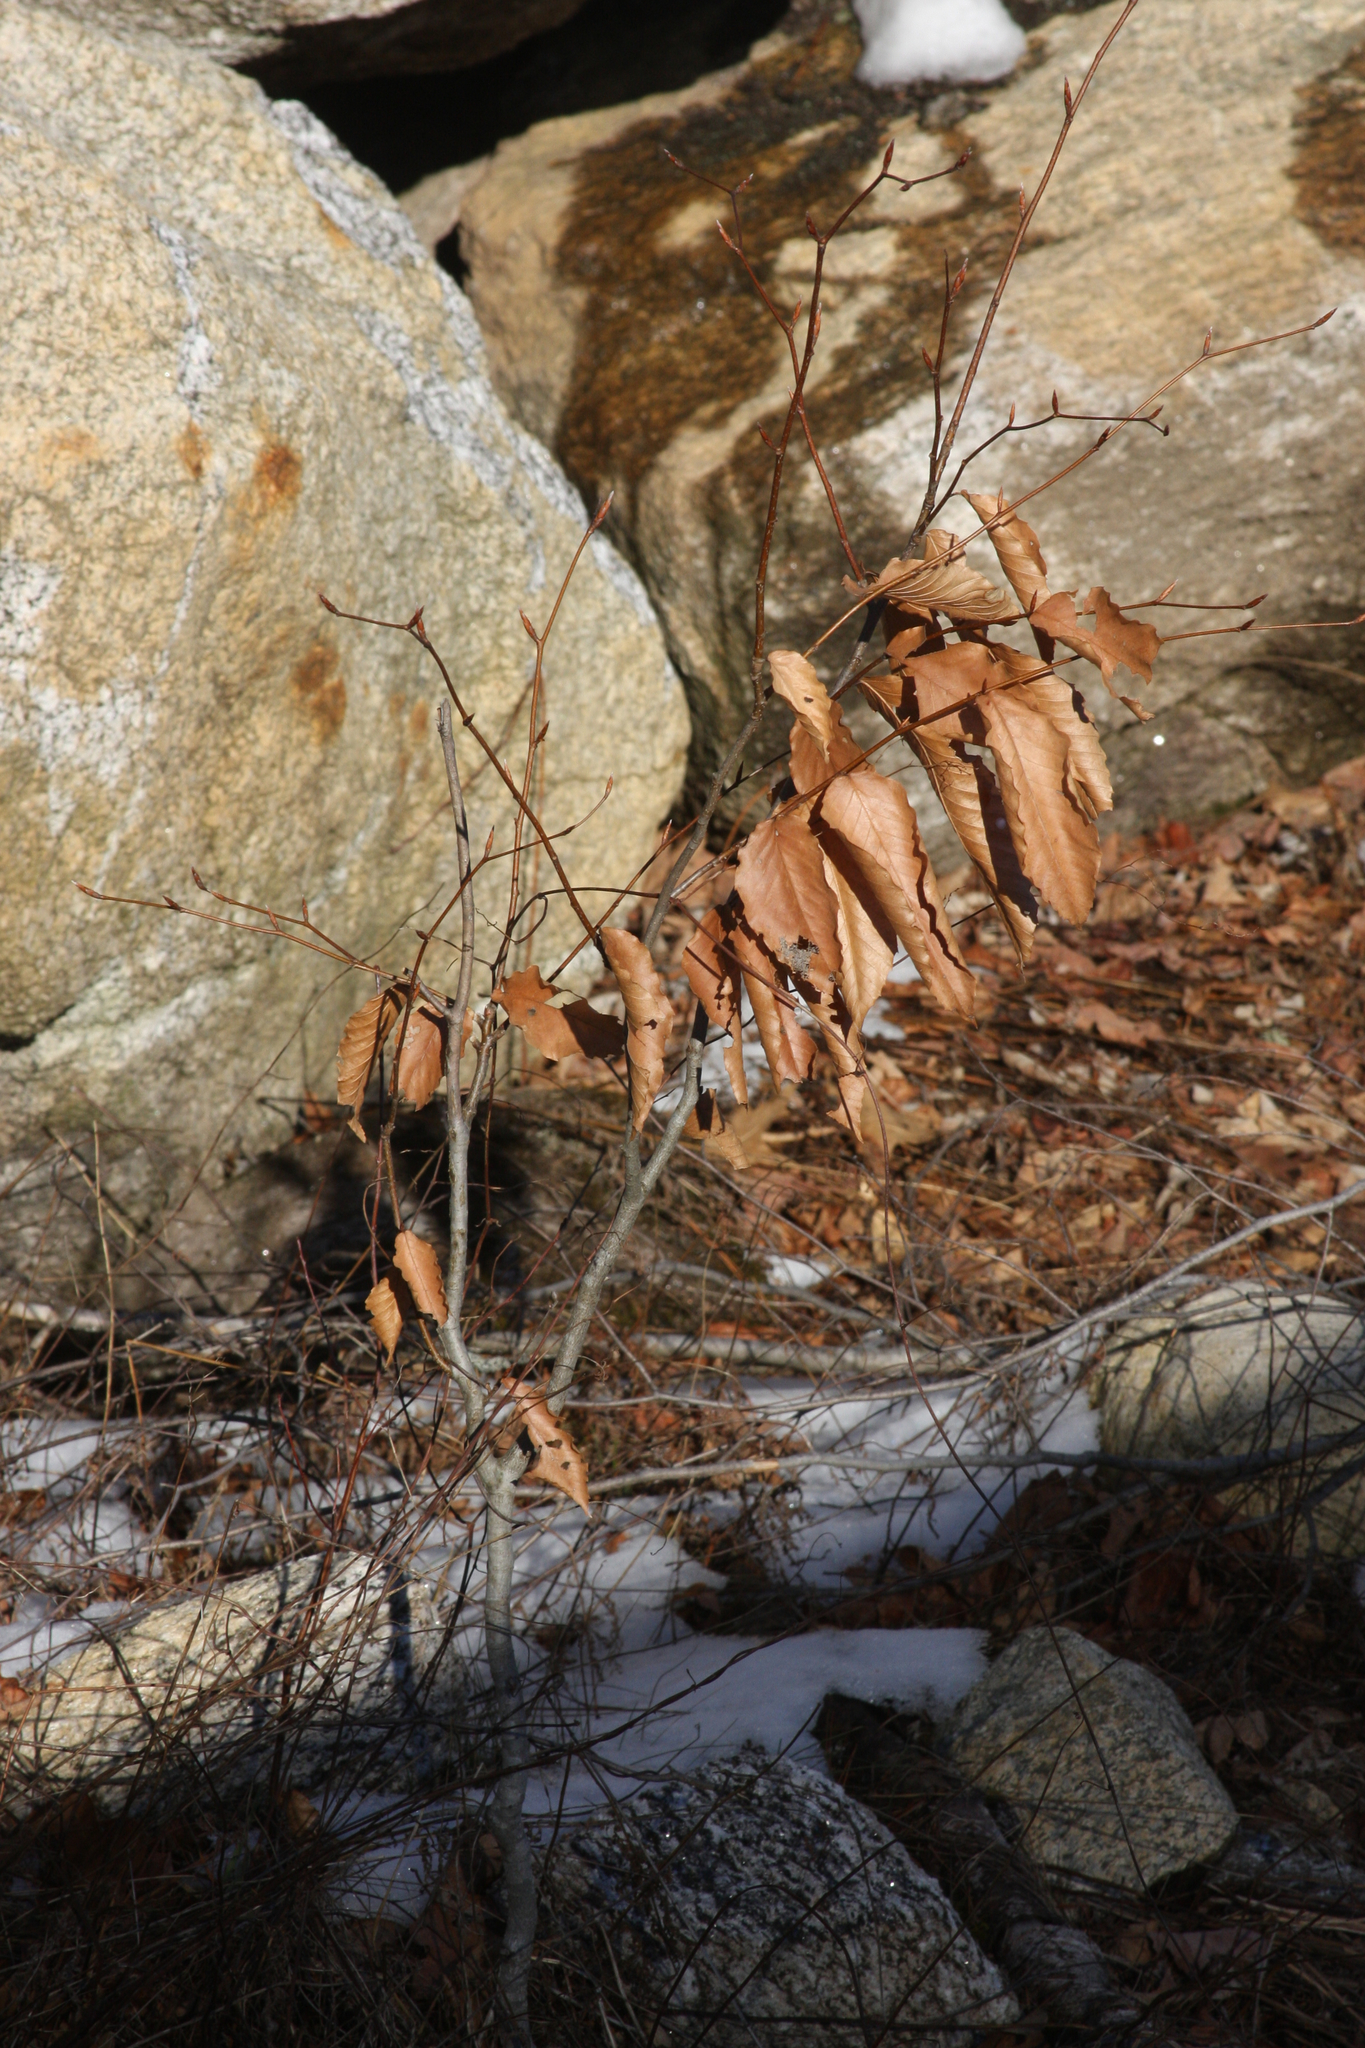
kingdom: Plantae
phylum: Tracheophyta
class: Magnoliopsida
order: Fagales
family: Fagaceae
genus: Fagus
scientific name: Fagus grandifolia
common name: American beech
